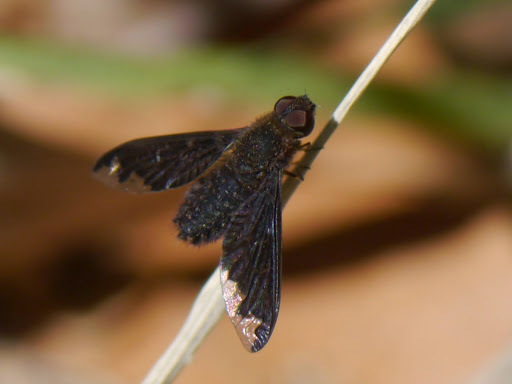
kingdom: Animalia
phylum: Arthropoda
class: Insecta
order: Diptera
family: Bombyliidae
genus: Hemipenthes
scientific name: Hemipenthes blanchardiana
